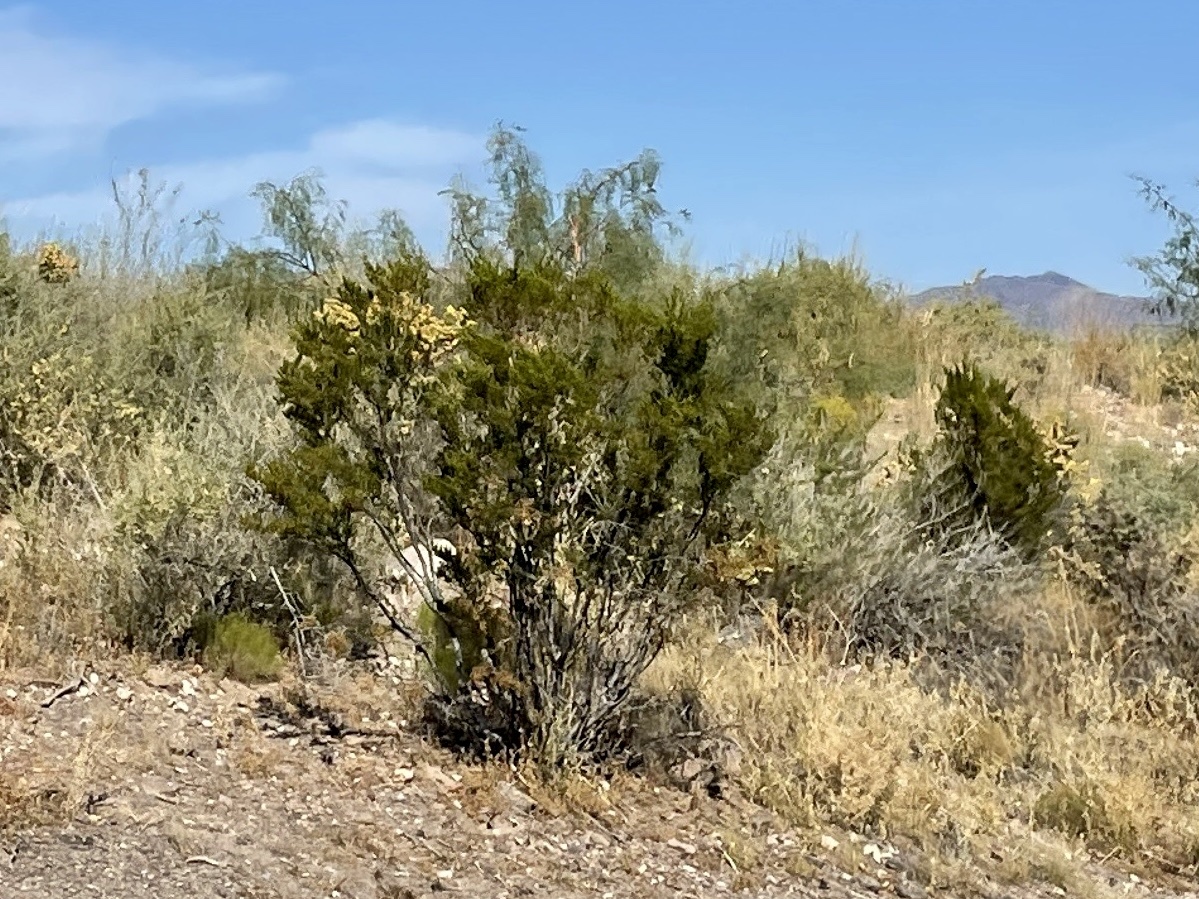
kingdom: Plantae
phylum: Tracheophyta
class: Magnoliopsida
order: Zygophyllales
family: Zygophyllaceae
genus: Larrea
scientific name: Larrea tridentata
